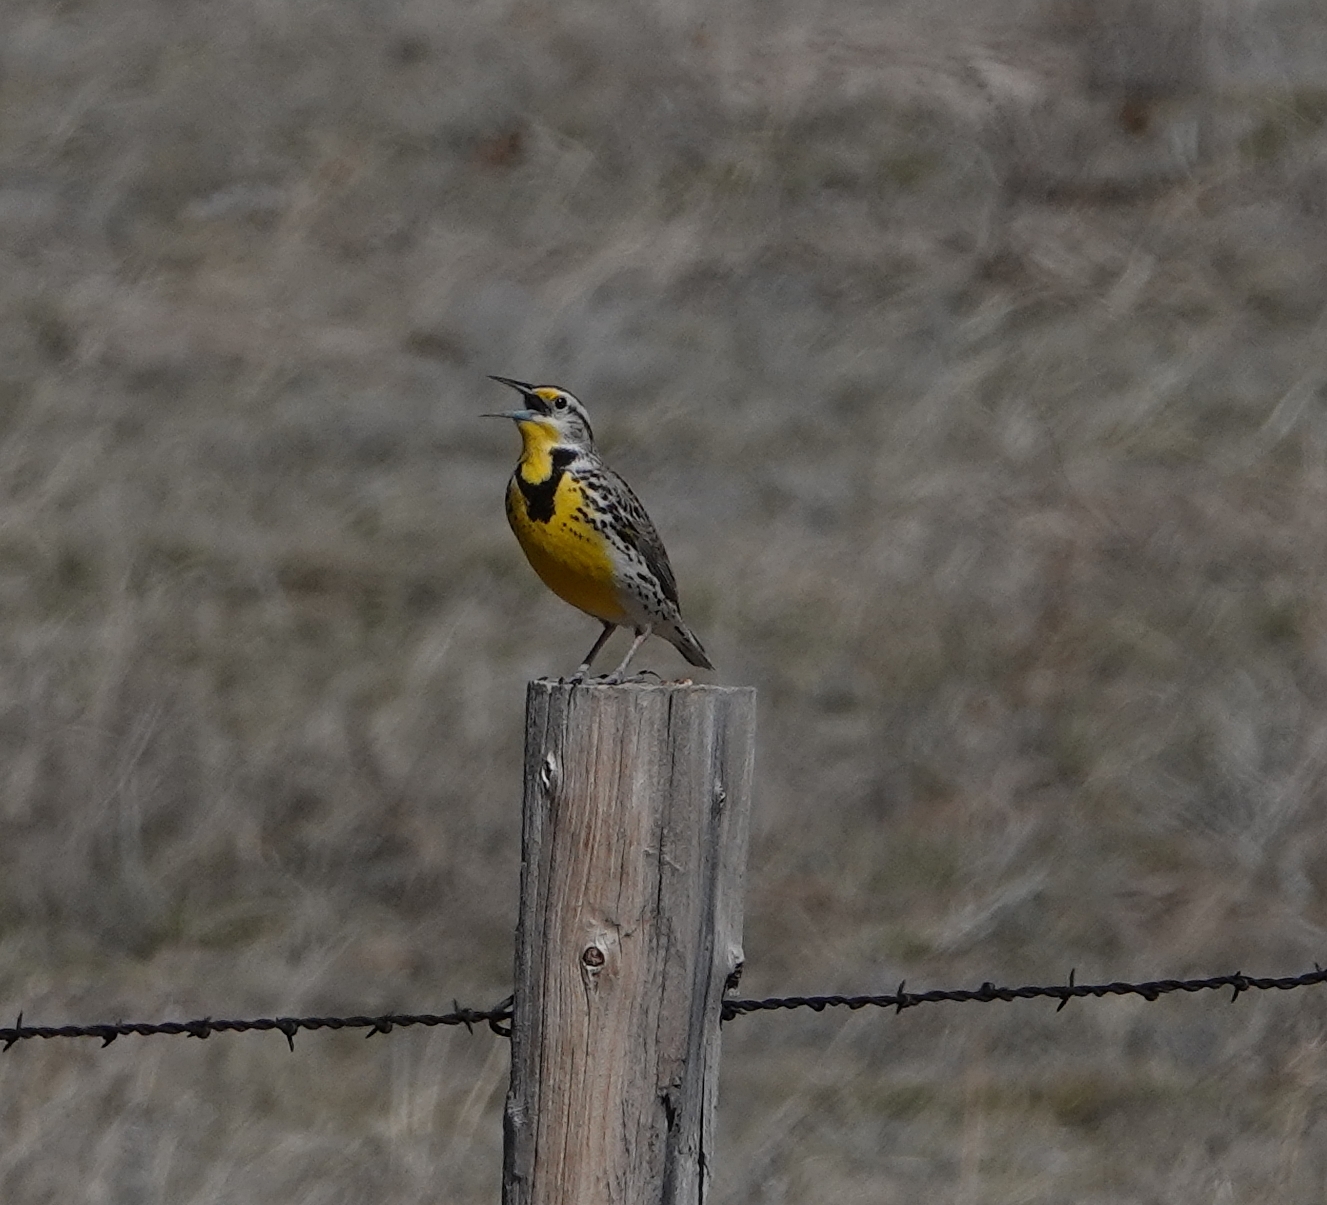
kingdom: Animalia
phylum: Chordata
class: Aves
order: Passeriformes
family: Icteridae
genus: Sturnella
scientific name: Sturnella neglecta
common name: Western meadowlark
